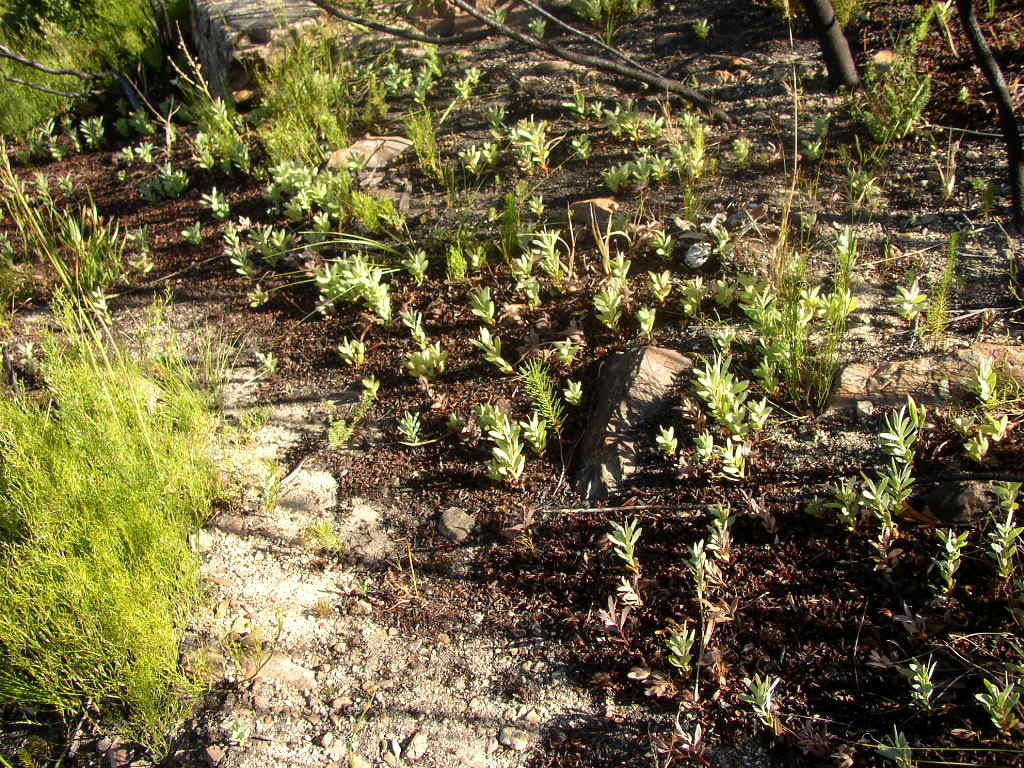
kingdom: Plantae
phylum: Tracheophyta
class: Magnoliopsida
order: Proteales
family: Proteaceae
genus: Protea
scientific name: Protea repens
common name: Sugarbush
